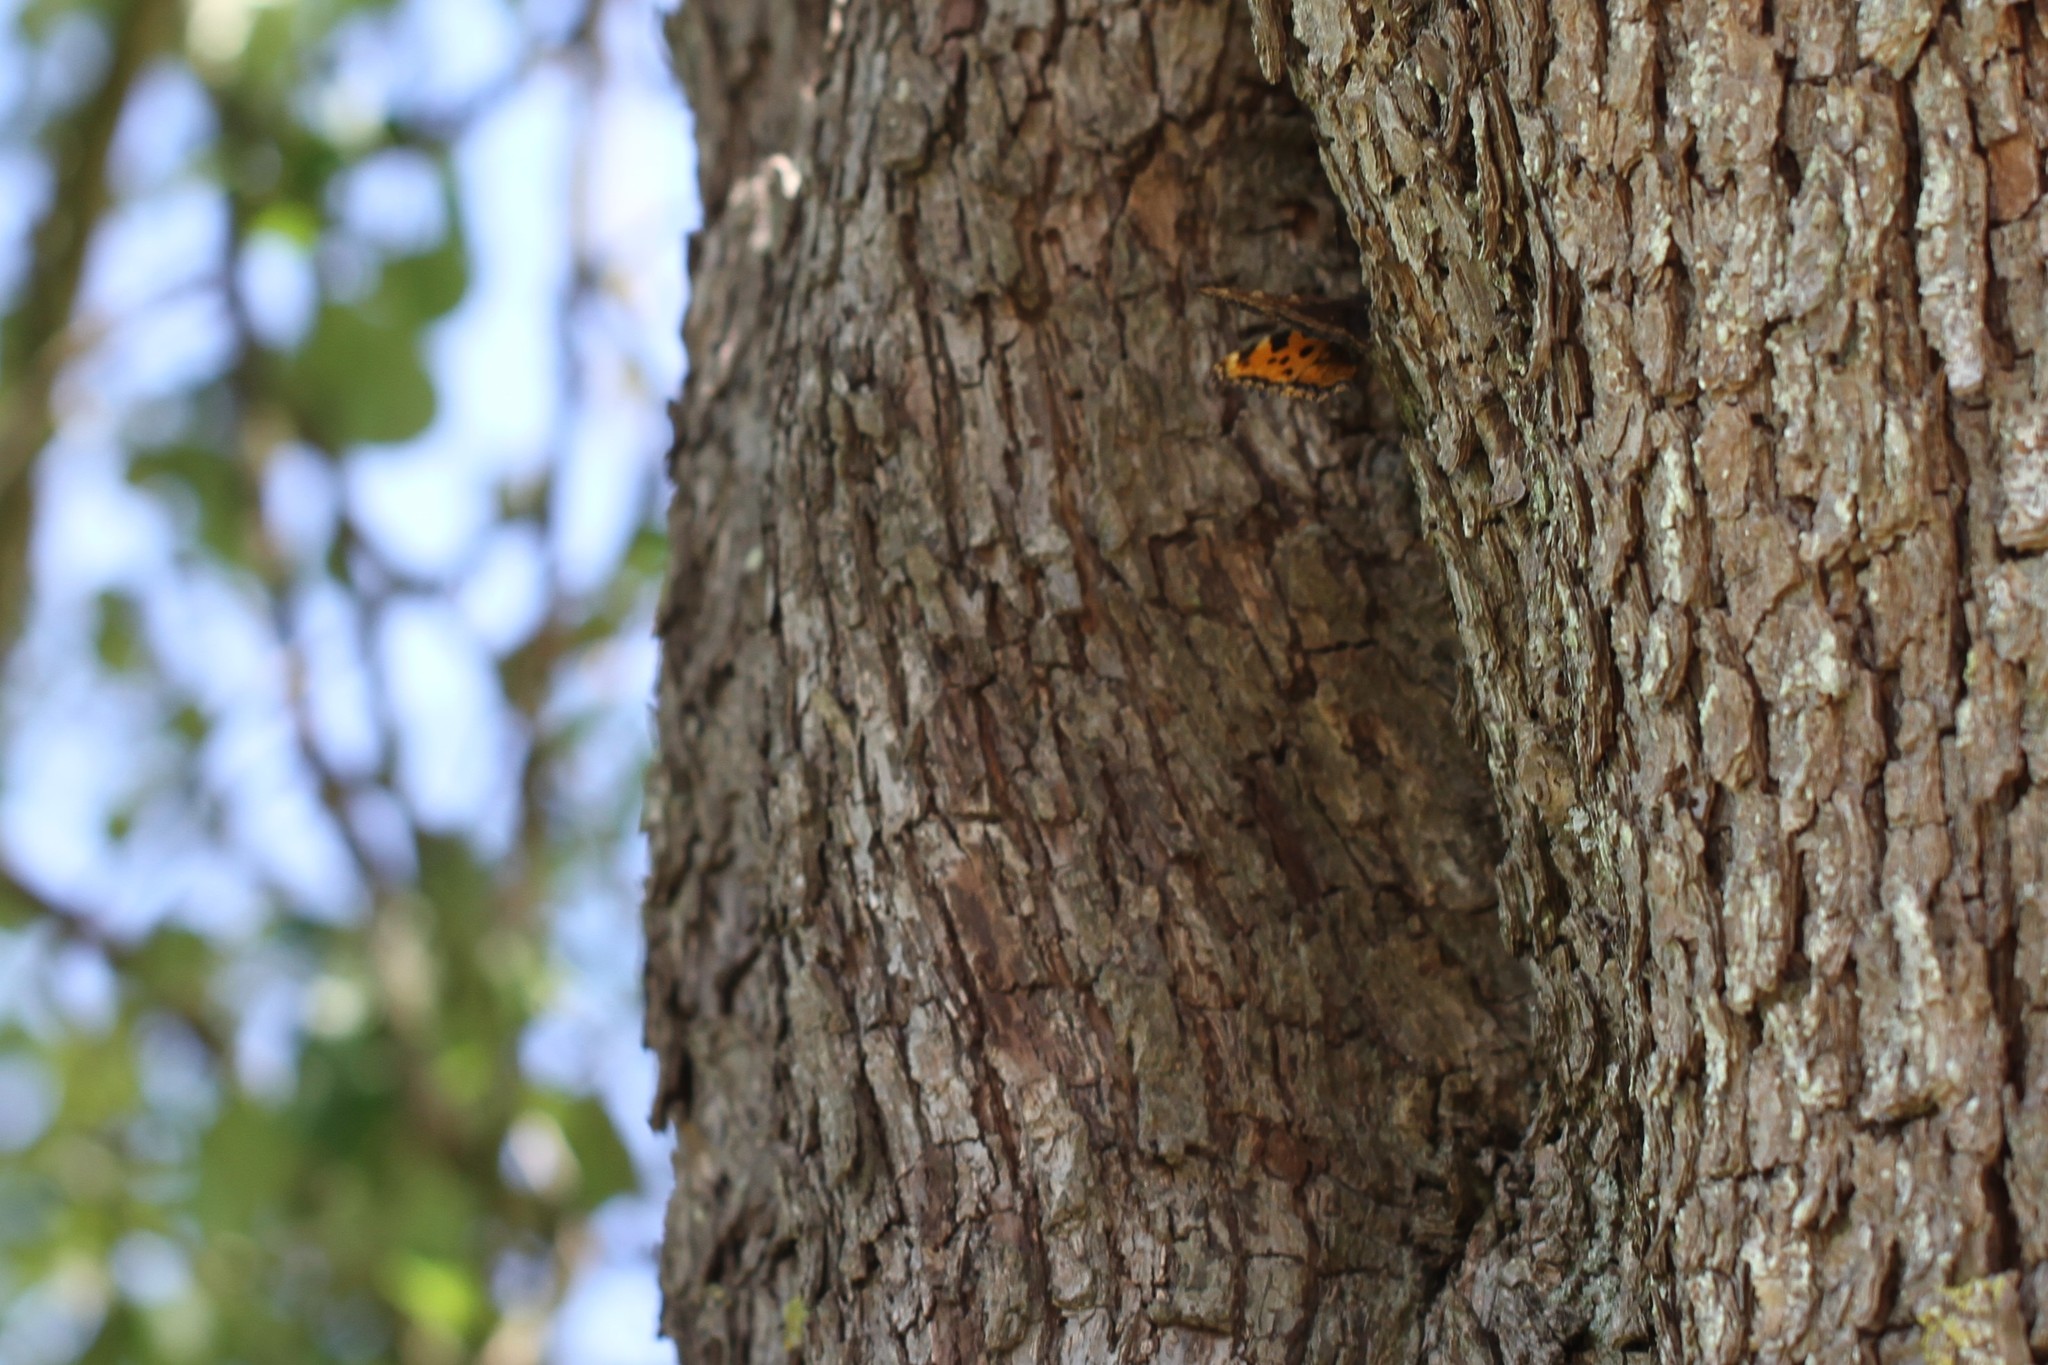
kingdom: Animalia
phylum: Arthropoda
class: Insecta
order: Lepidoptera
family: Nymphalidae
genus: Nymphalis
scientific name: Nymphalis polychloros
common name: Large tortoiseshell
